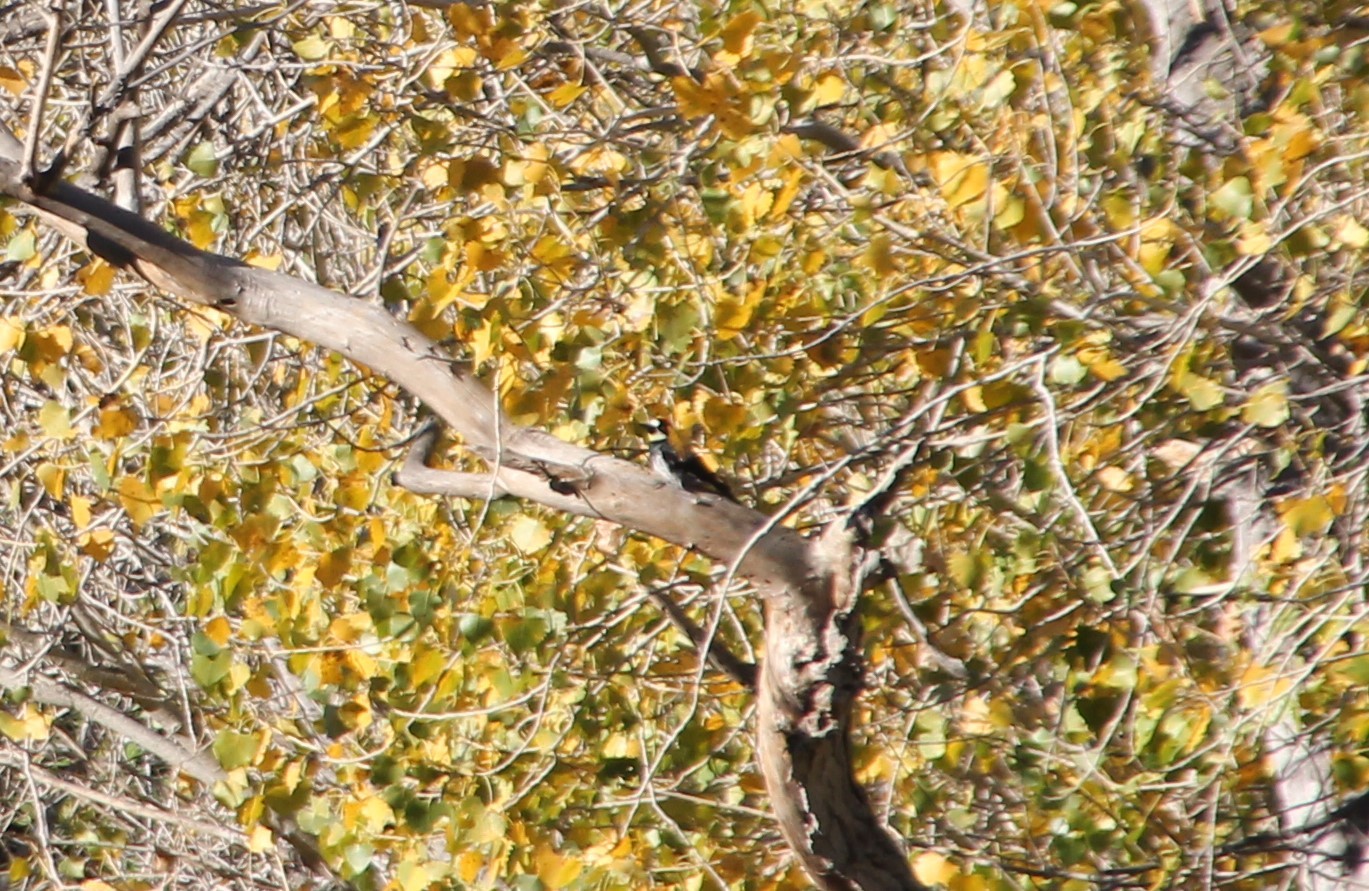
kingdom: Animalia
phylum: Chordata
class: Aves
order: Piciformes
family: Picidae
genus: Melanerpes
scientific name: Melanerpes formicivorus
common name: Acorn woodpecker
